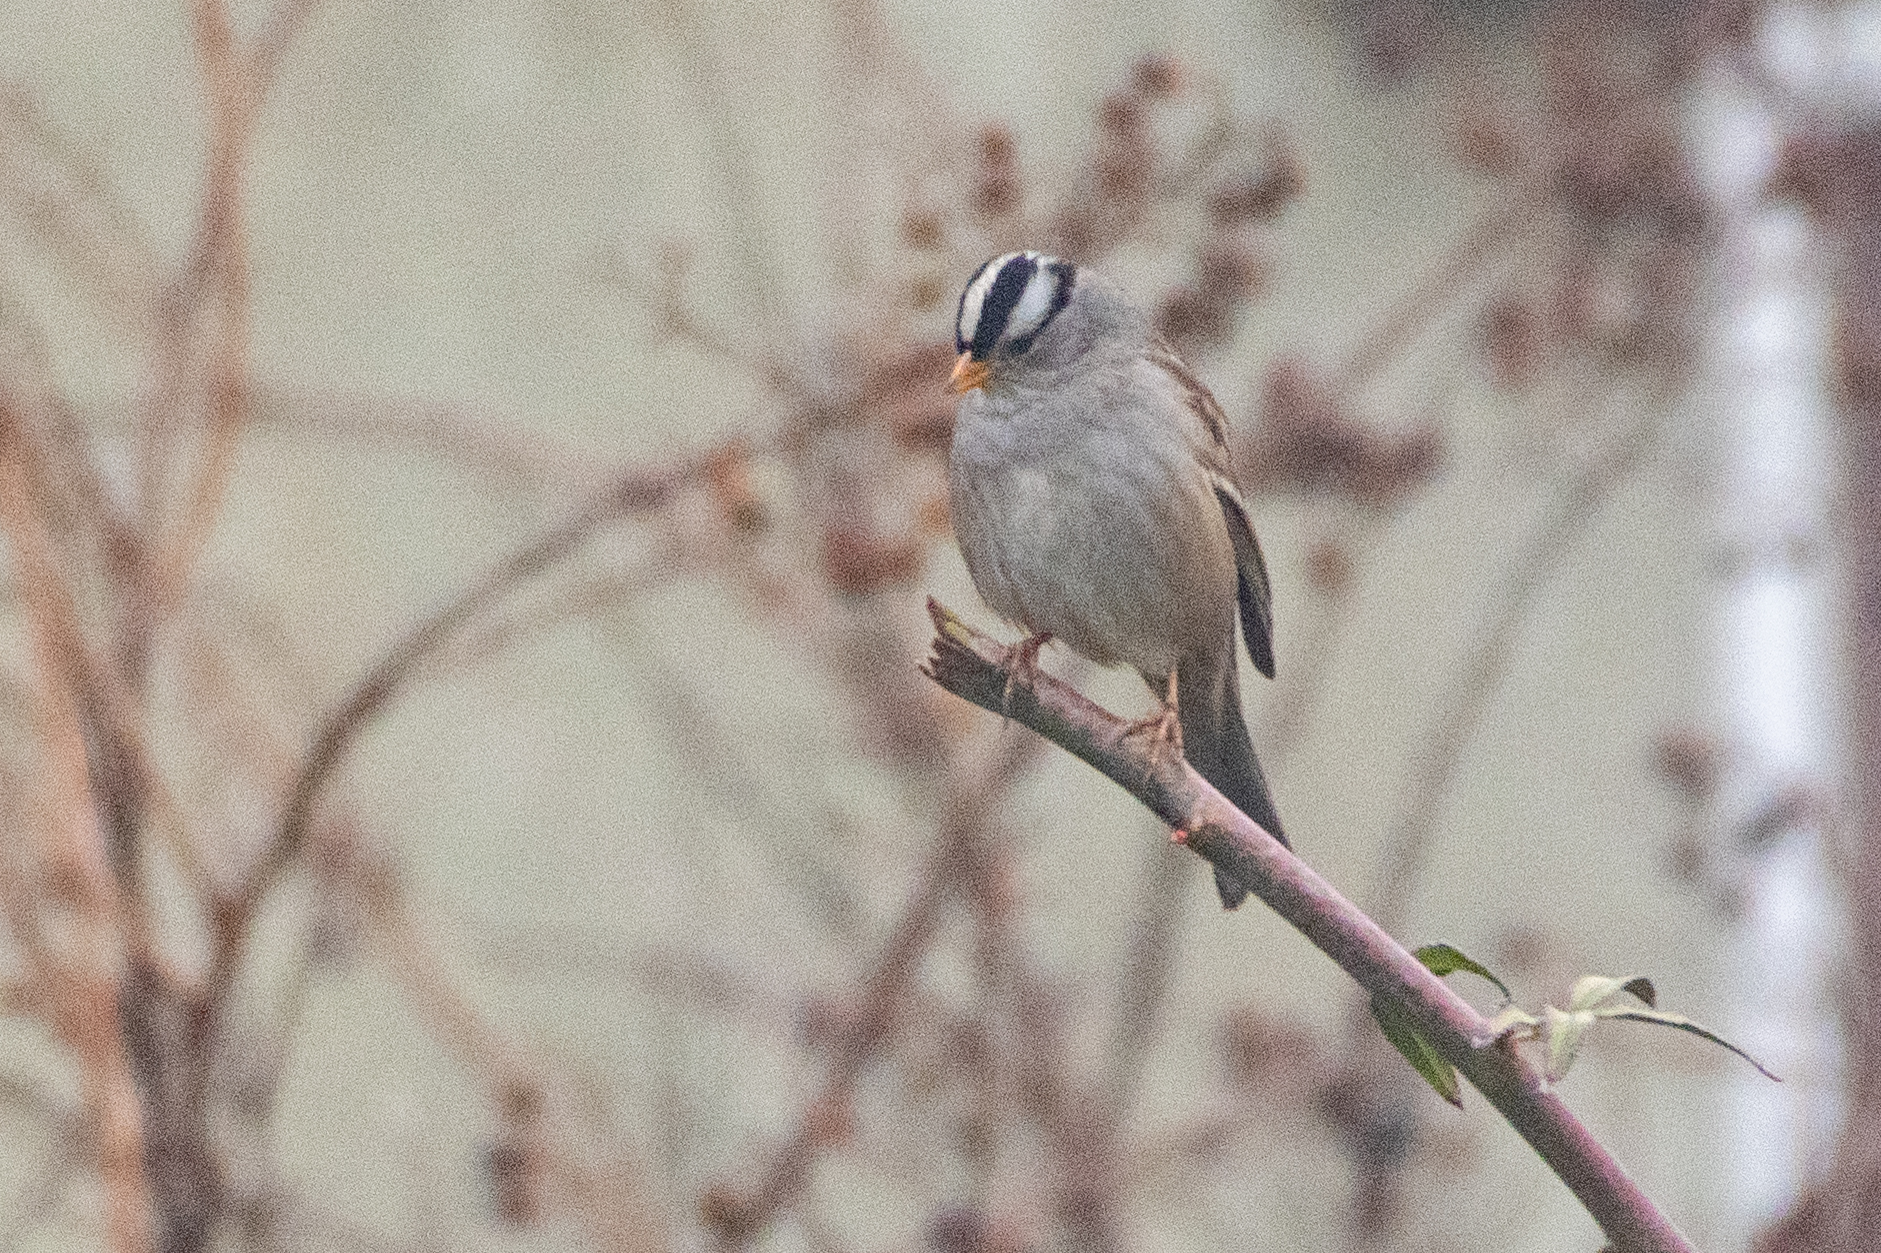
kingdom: Animalia
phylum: Chordata
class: Aves
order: Passeriformes
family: Passerellidae
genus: Zonotrichia
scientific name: Zonotrichia leucophrys
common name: White-crowned sparrow
